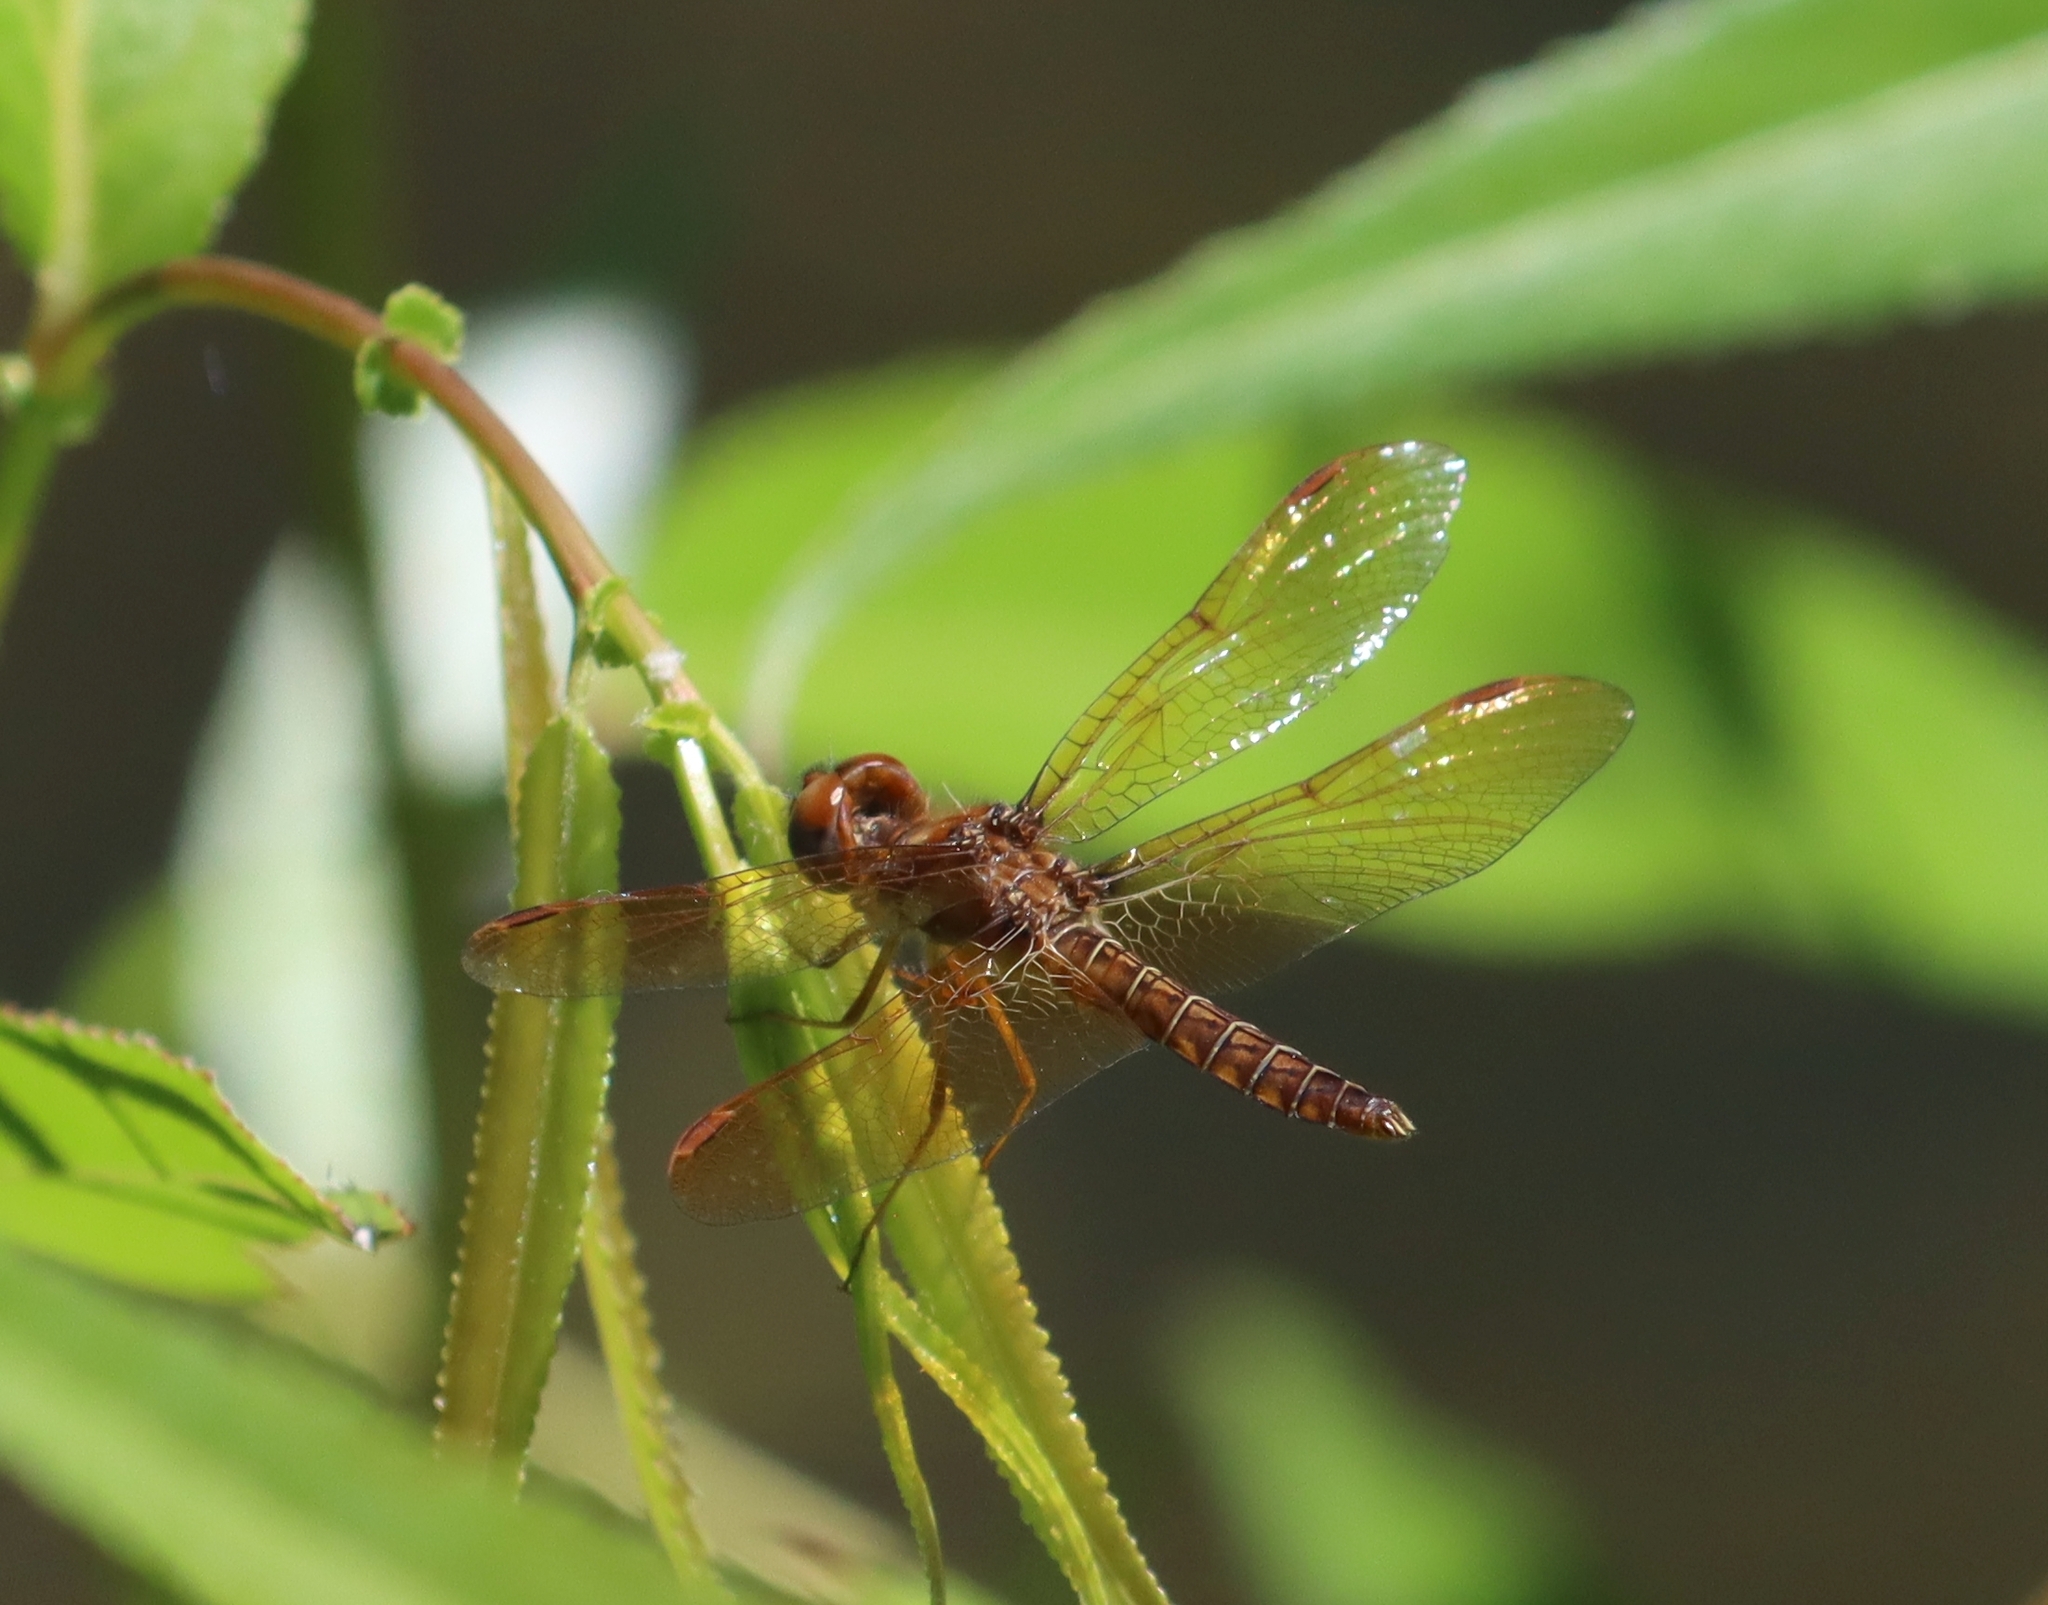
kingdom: Animalia
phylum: Arthropoda
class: Insecta
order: Odonata
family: Libellulidae
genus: Perithemis
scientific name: Perithemis tenera
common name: Eastern amberwing
